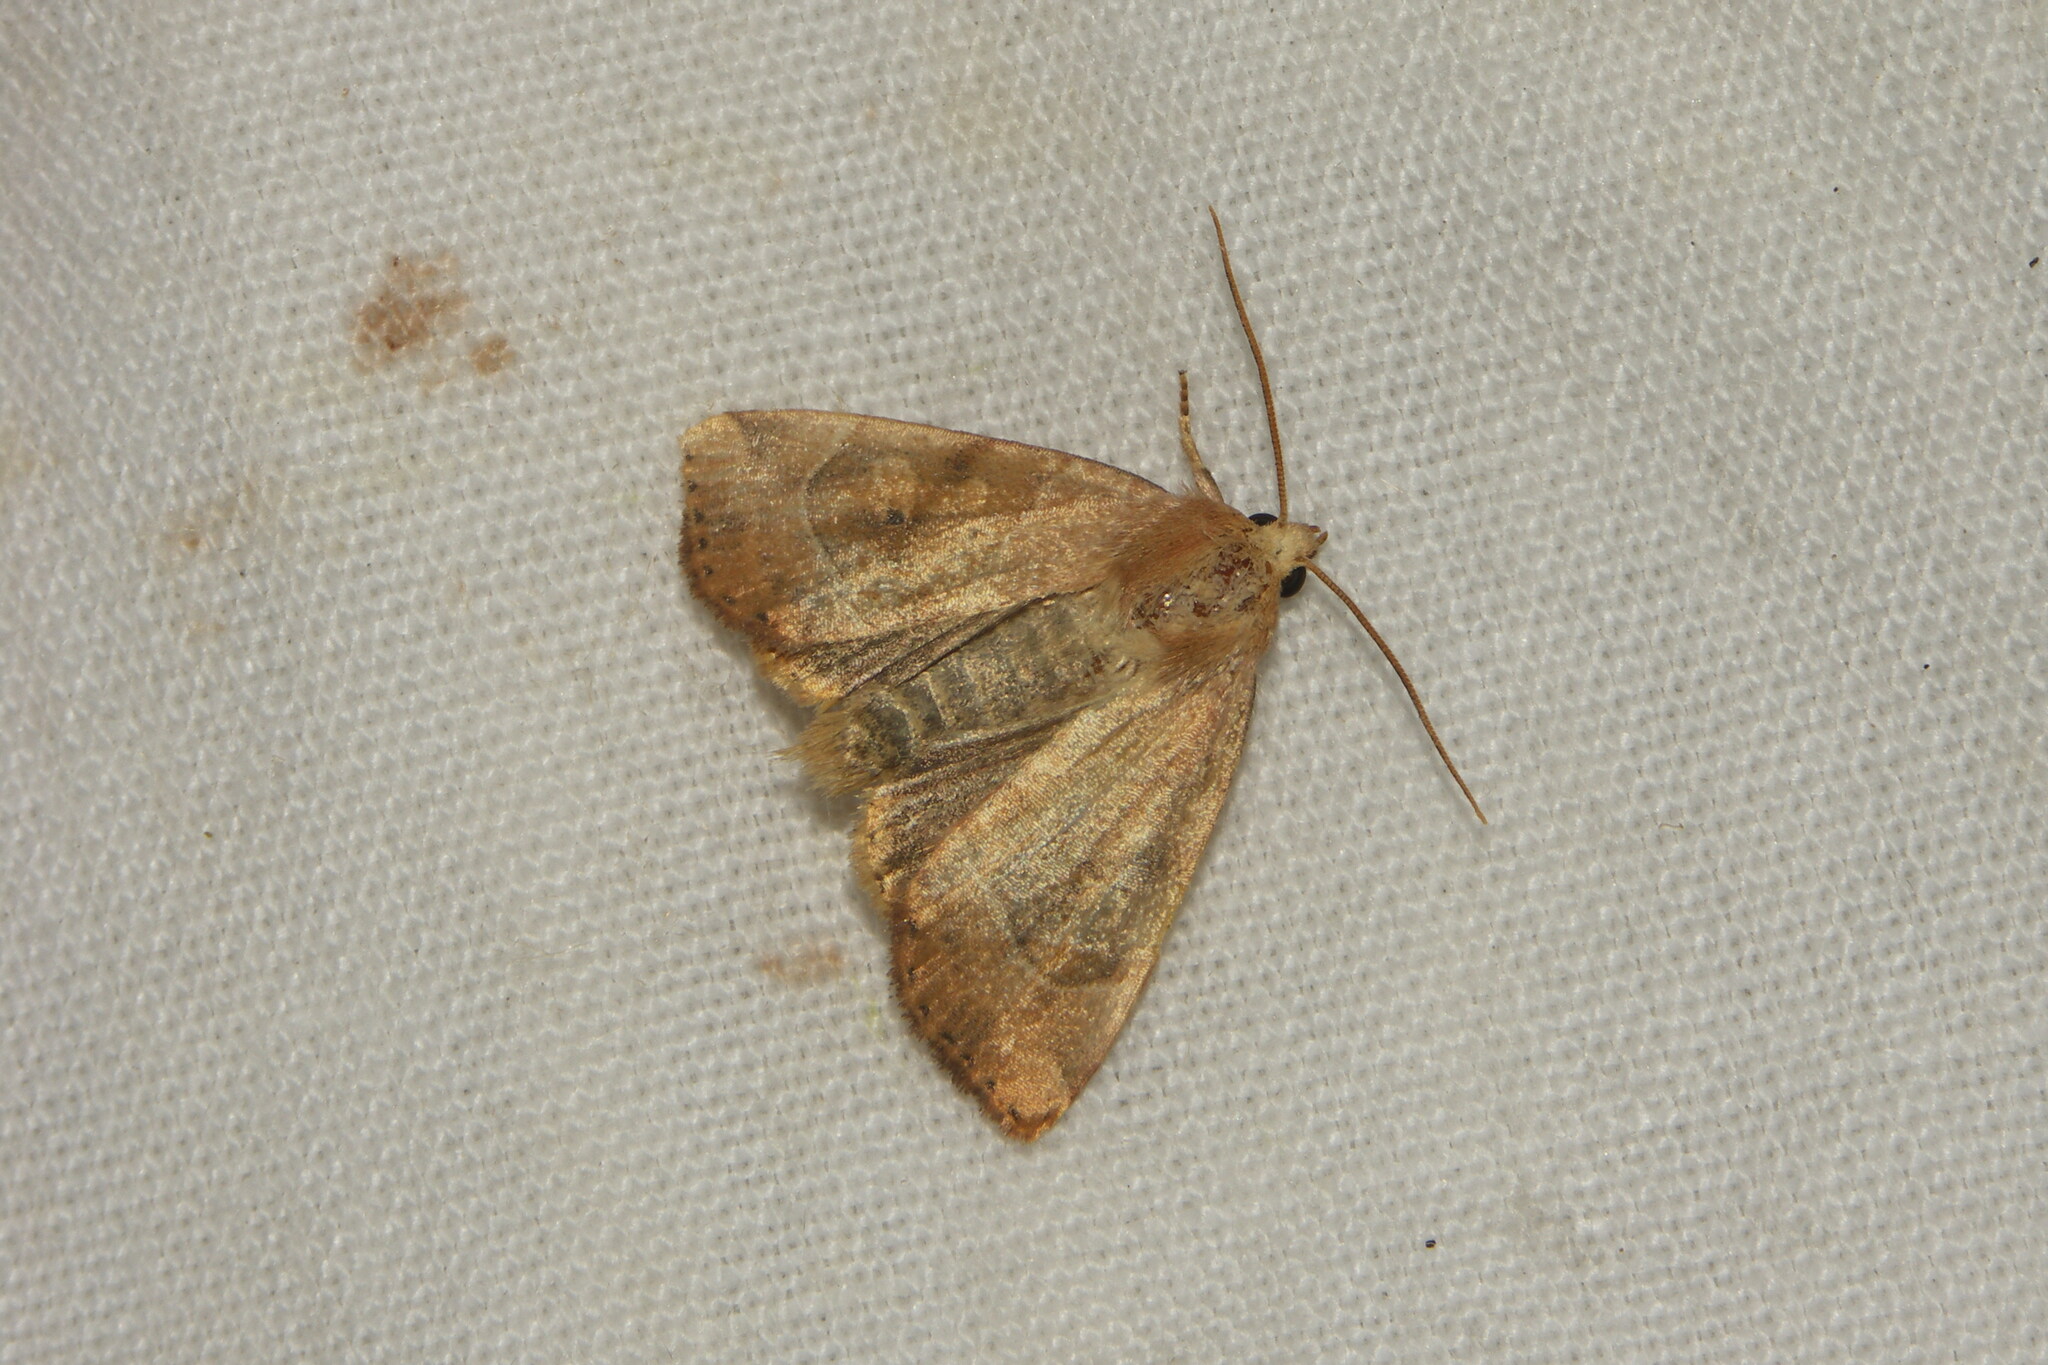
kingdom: Animalia
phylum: Arthropoda
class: Insecta
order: Lepidoptera
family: Noctuidae
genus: Cosmia
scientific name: Cosmia trapezina
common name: Dun-bar
